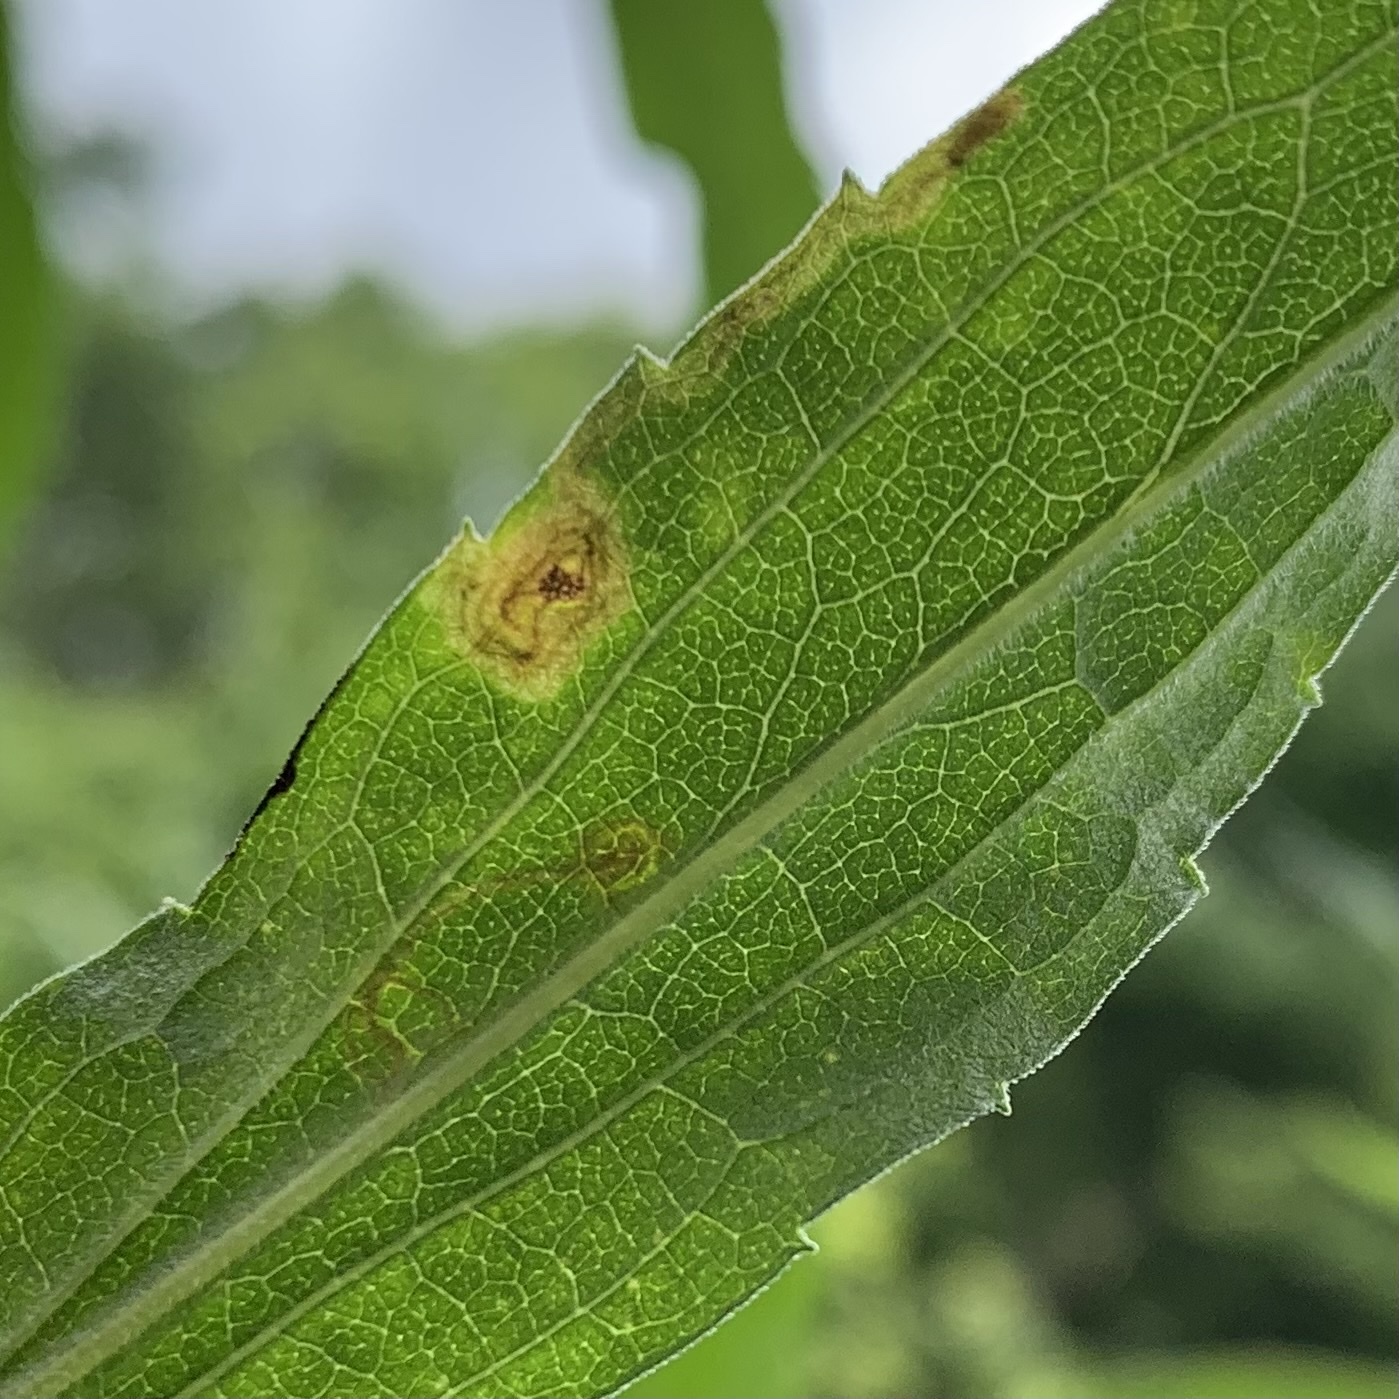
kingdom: Animalia
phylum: Arthropoda
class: Insecta
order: Diptera
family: Agromyzidae
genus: Liriomyza
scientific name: Liriomyza eupatorii
